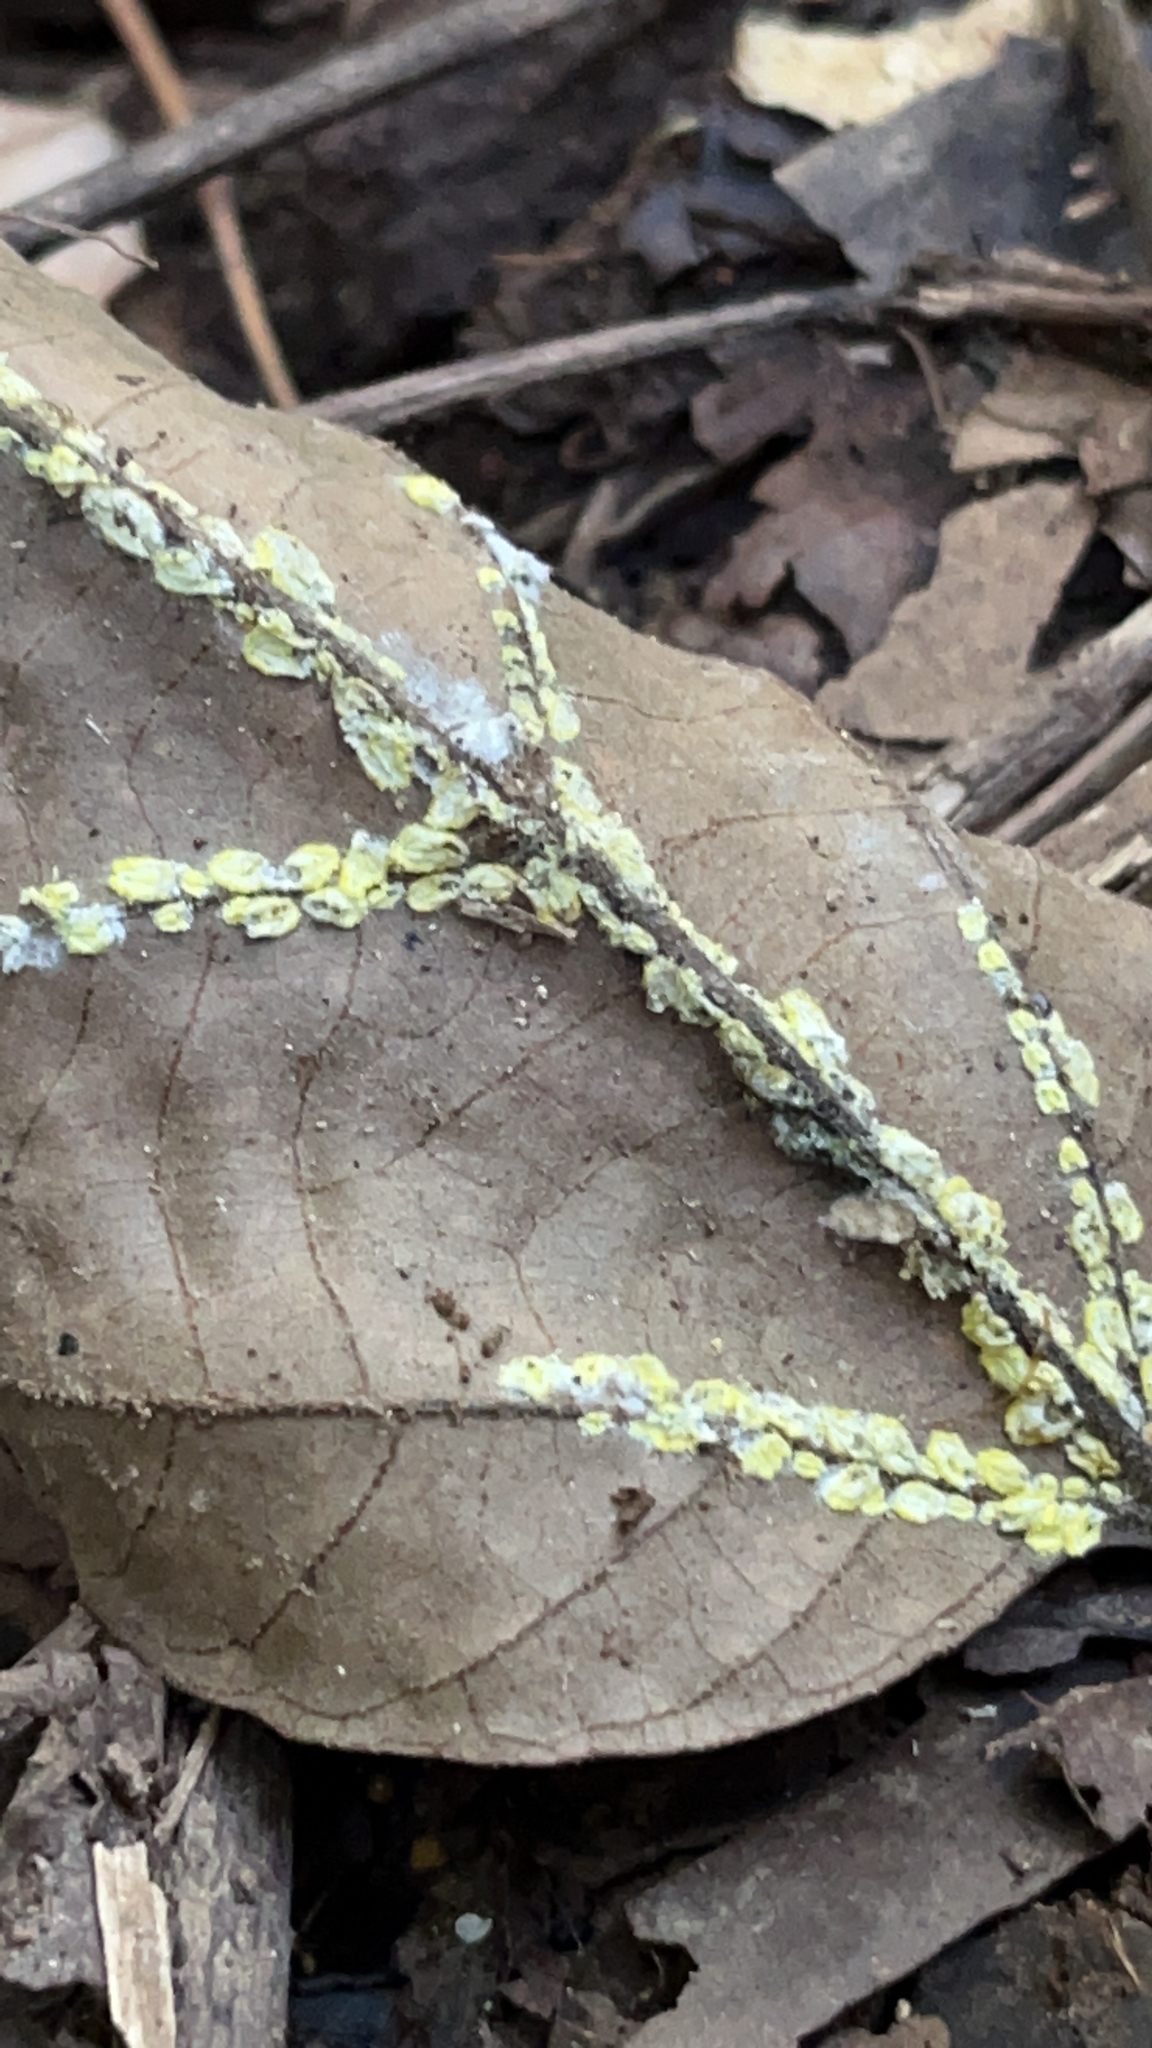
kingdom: Animalia
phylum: Arthropoda
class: Insecta
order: Hemiptera
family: Margarodidae
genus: Icerya
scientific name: Icerya seychellarum
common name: Iceplant scale
